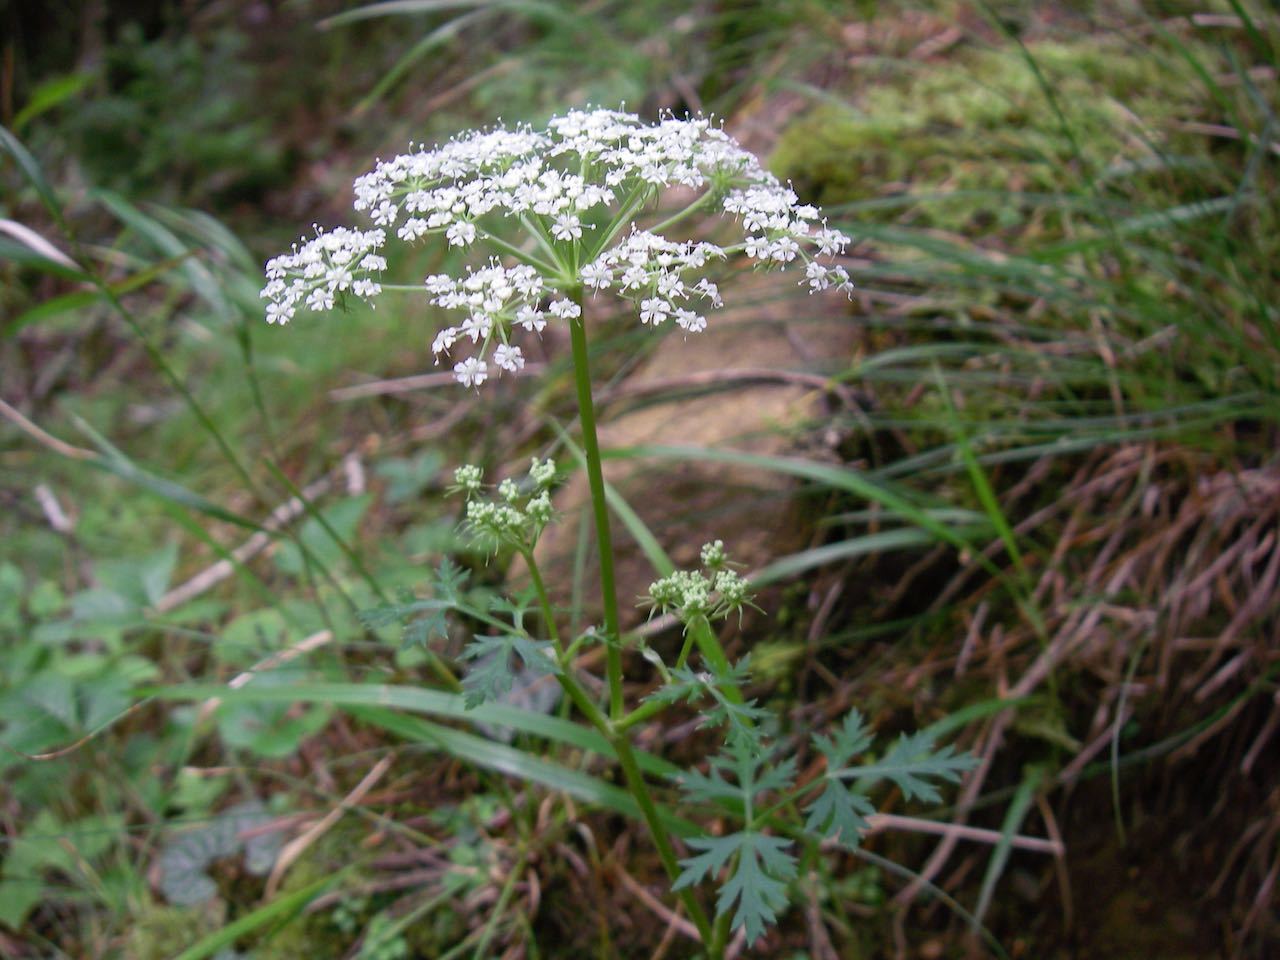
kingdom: Plantae
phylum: Tracheophyta
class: Magnoliopsida
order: Apiales
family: Apiaceae
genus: Kitagawia
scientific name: Kitagawia terebinthacea
